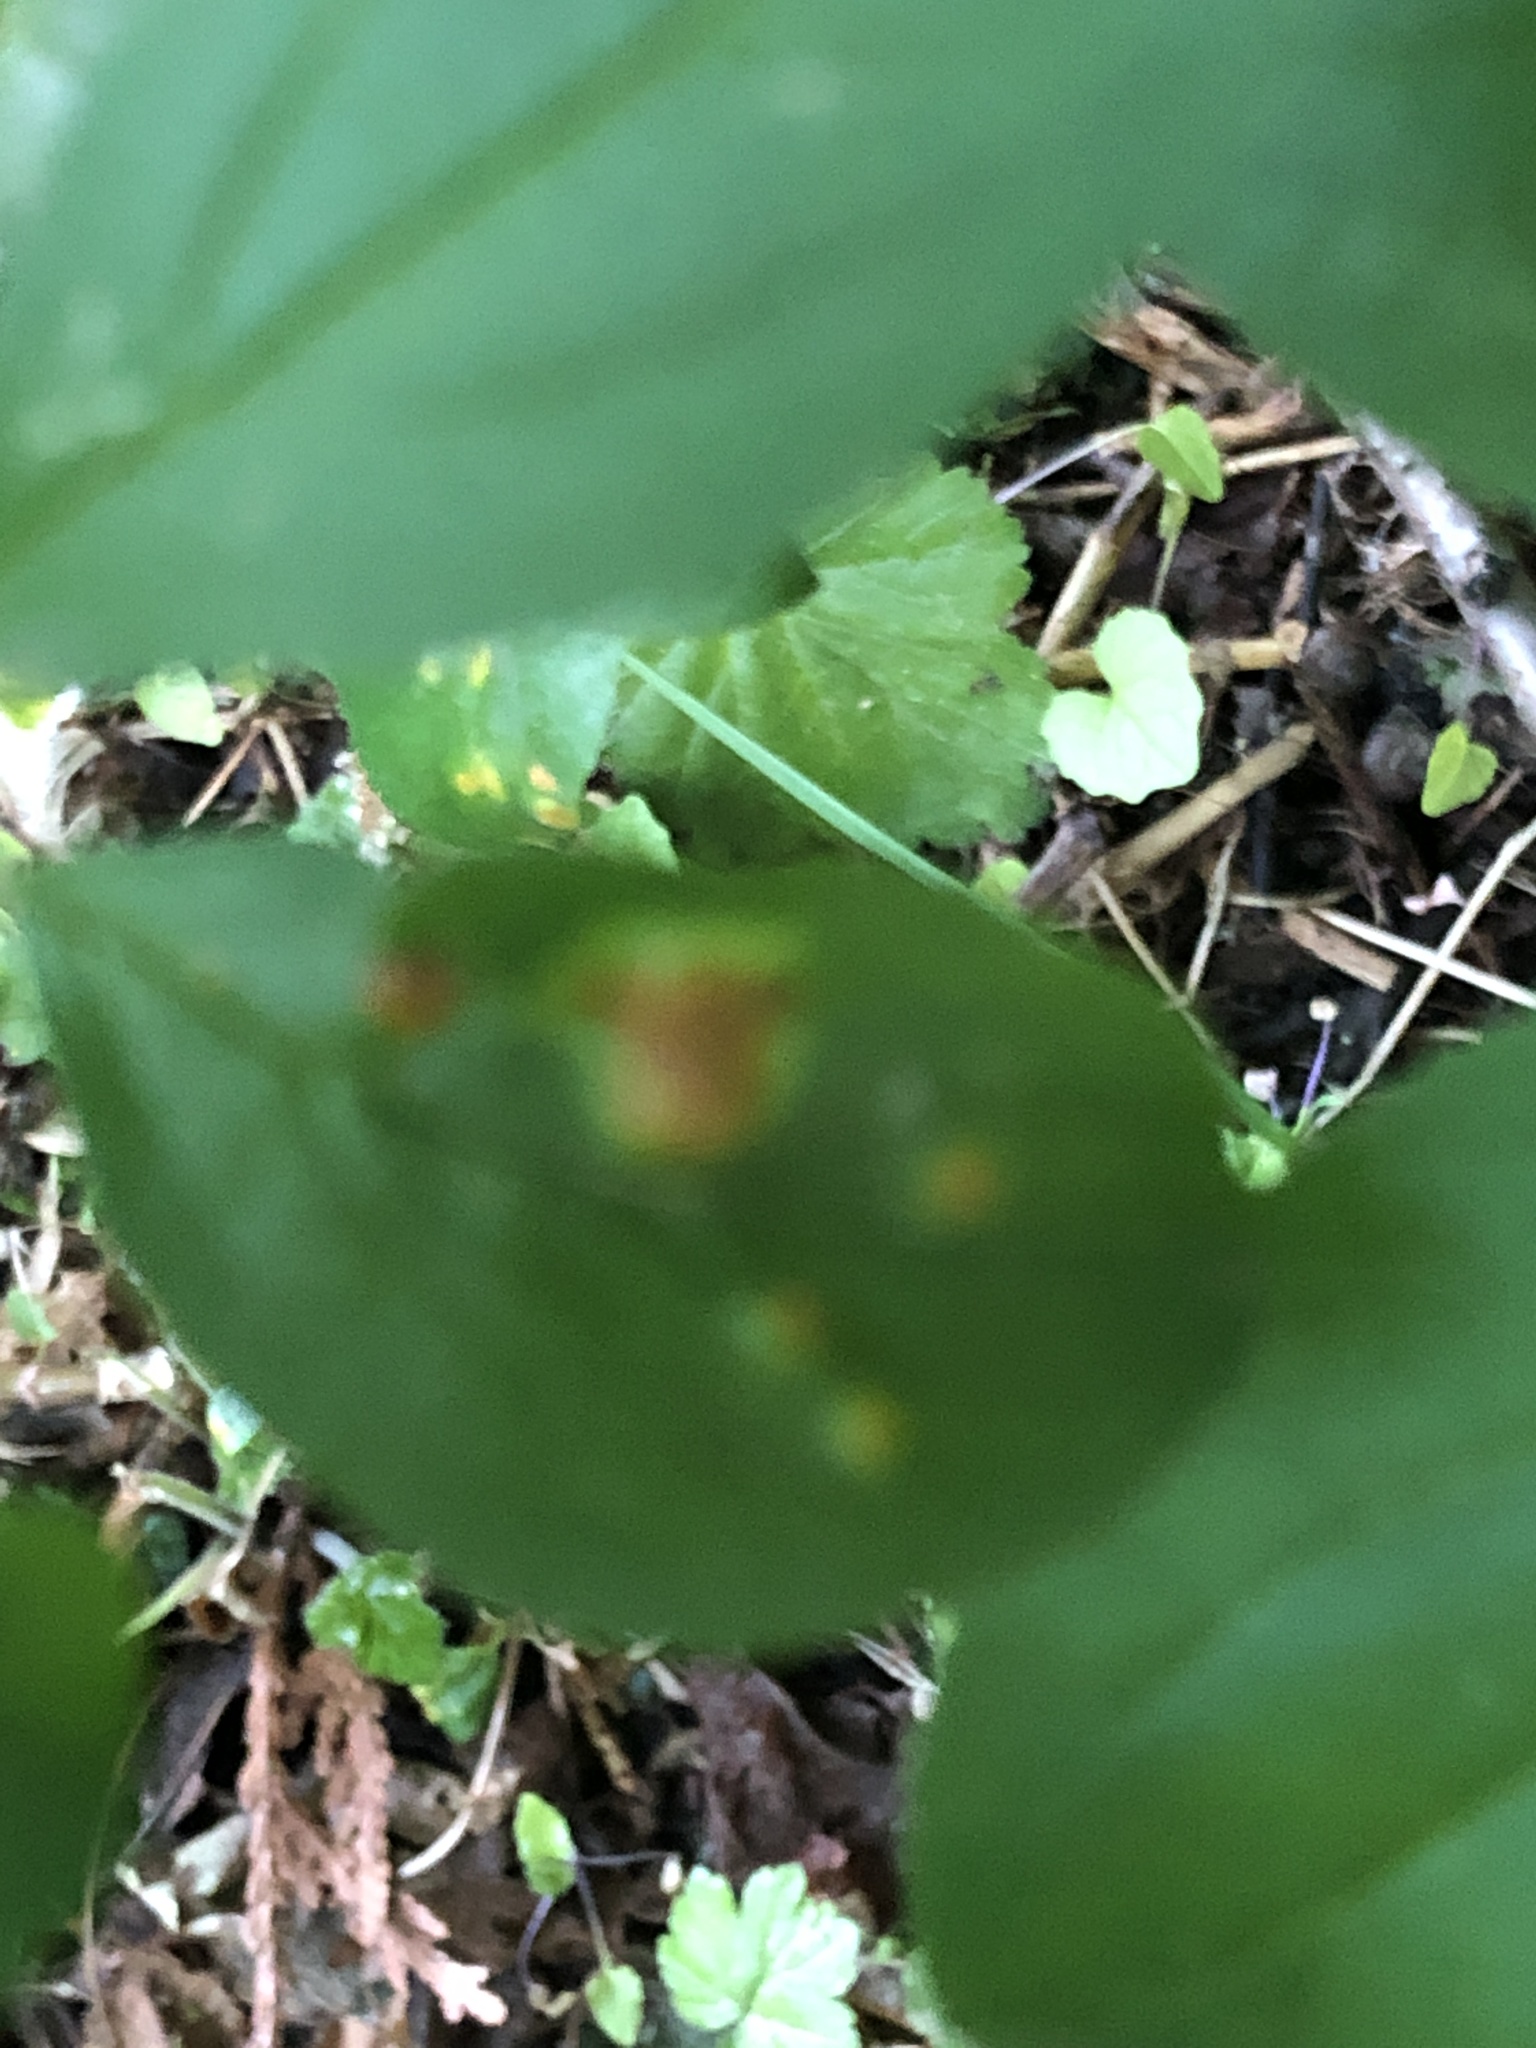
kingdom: Fungi
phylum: Basidiomycota
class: Pucciniomycetes
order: Pucciniales
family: Pucciniaceae
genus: Puccinia
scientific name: Puccinia coronata
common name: Crown rust
